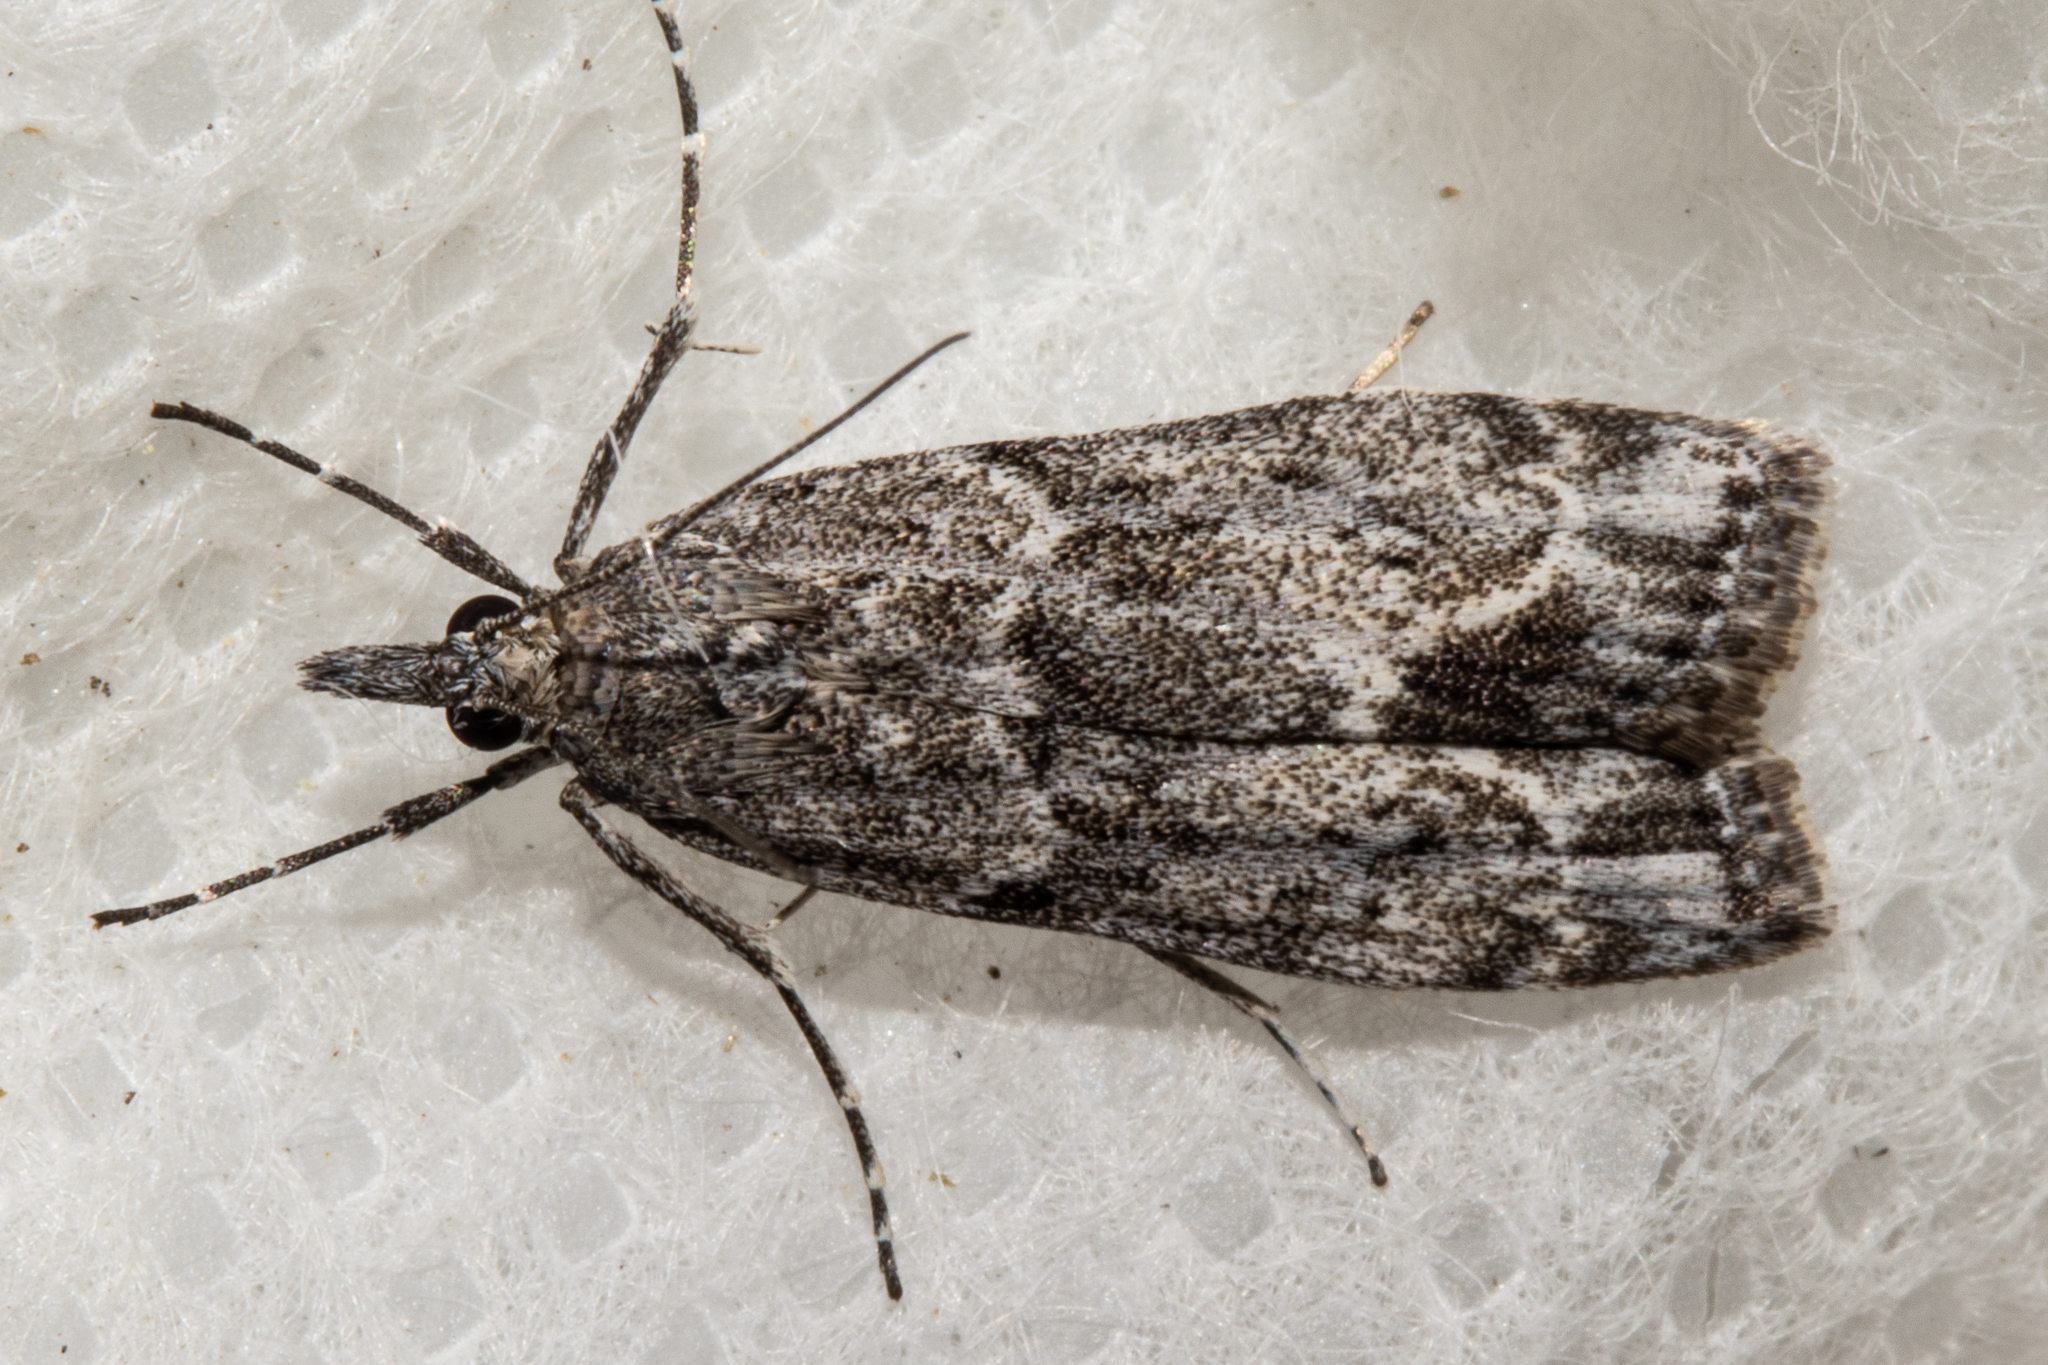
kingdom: Animalia
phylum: Arthropoda
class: Insecta
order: Lepidoptera
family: Crambidae
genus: Eudonia
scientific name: Eudonia rakaiensis
